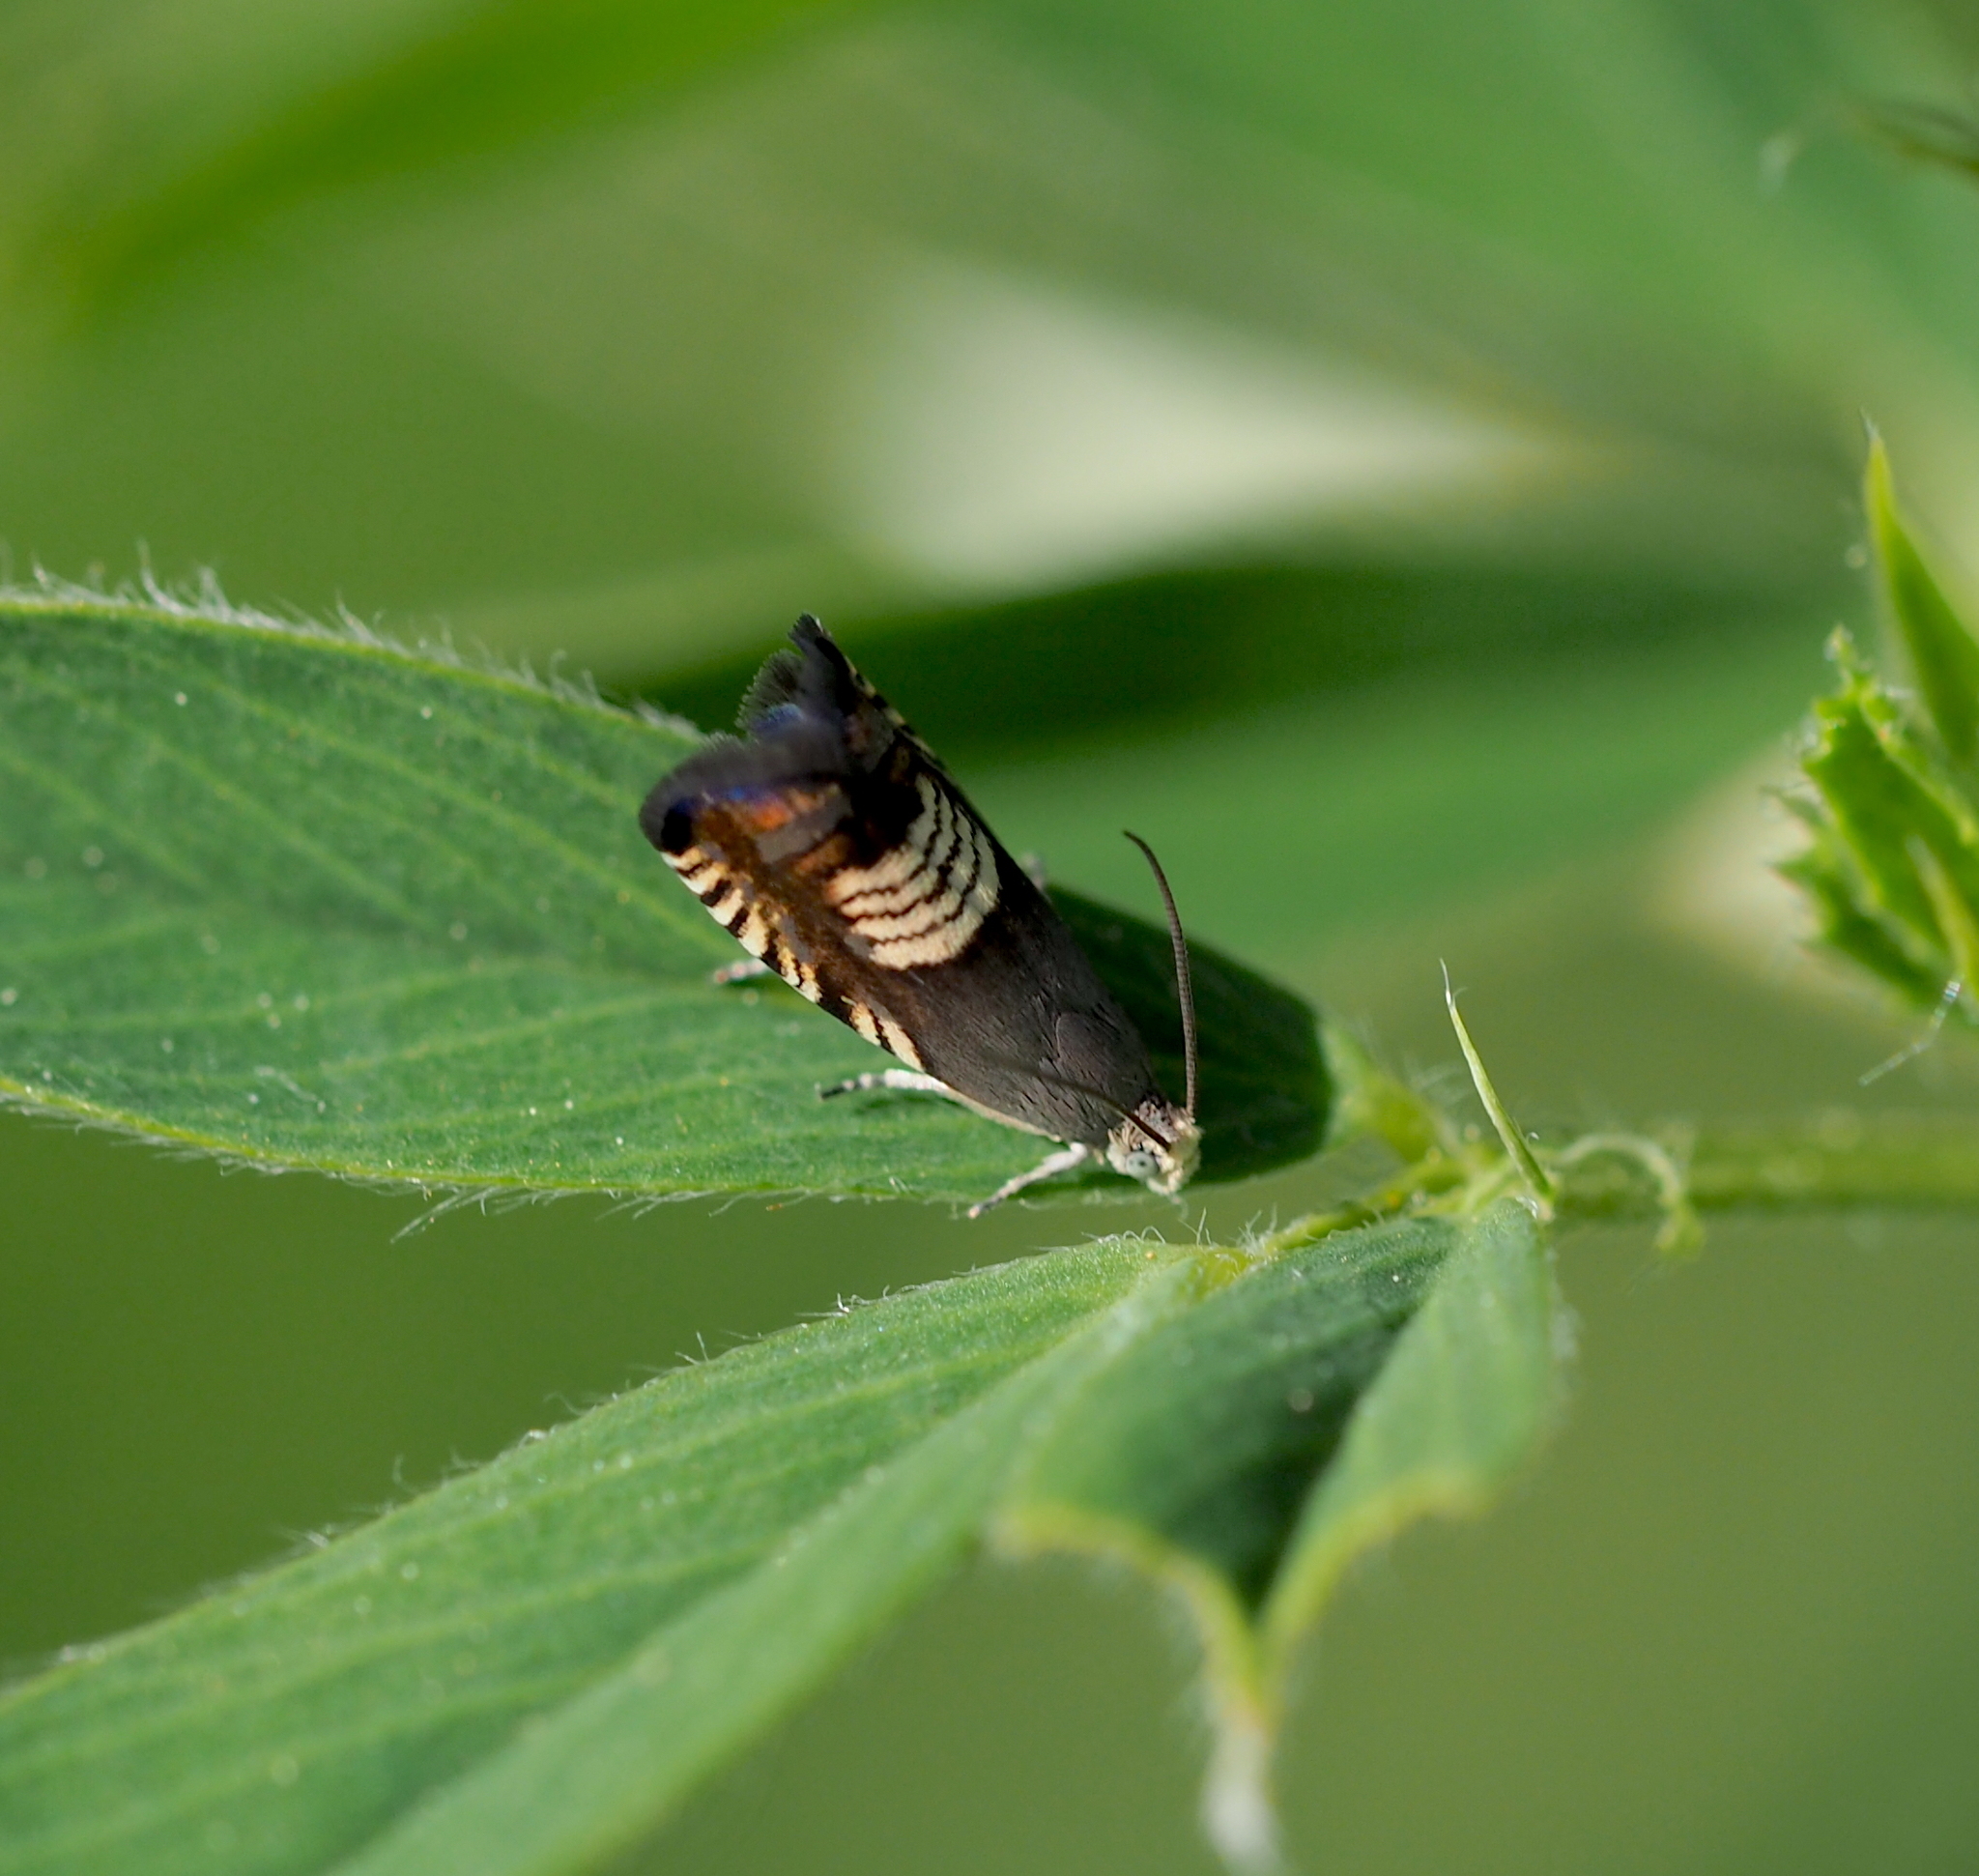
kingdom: Animalia
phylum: Arthropoda
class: Insecta
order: Lepidoptera
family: Tortricidae
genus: Grapholita
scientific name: Grapholita compositella
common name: Triple-stripe piercer
